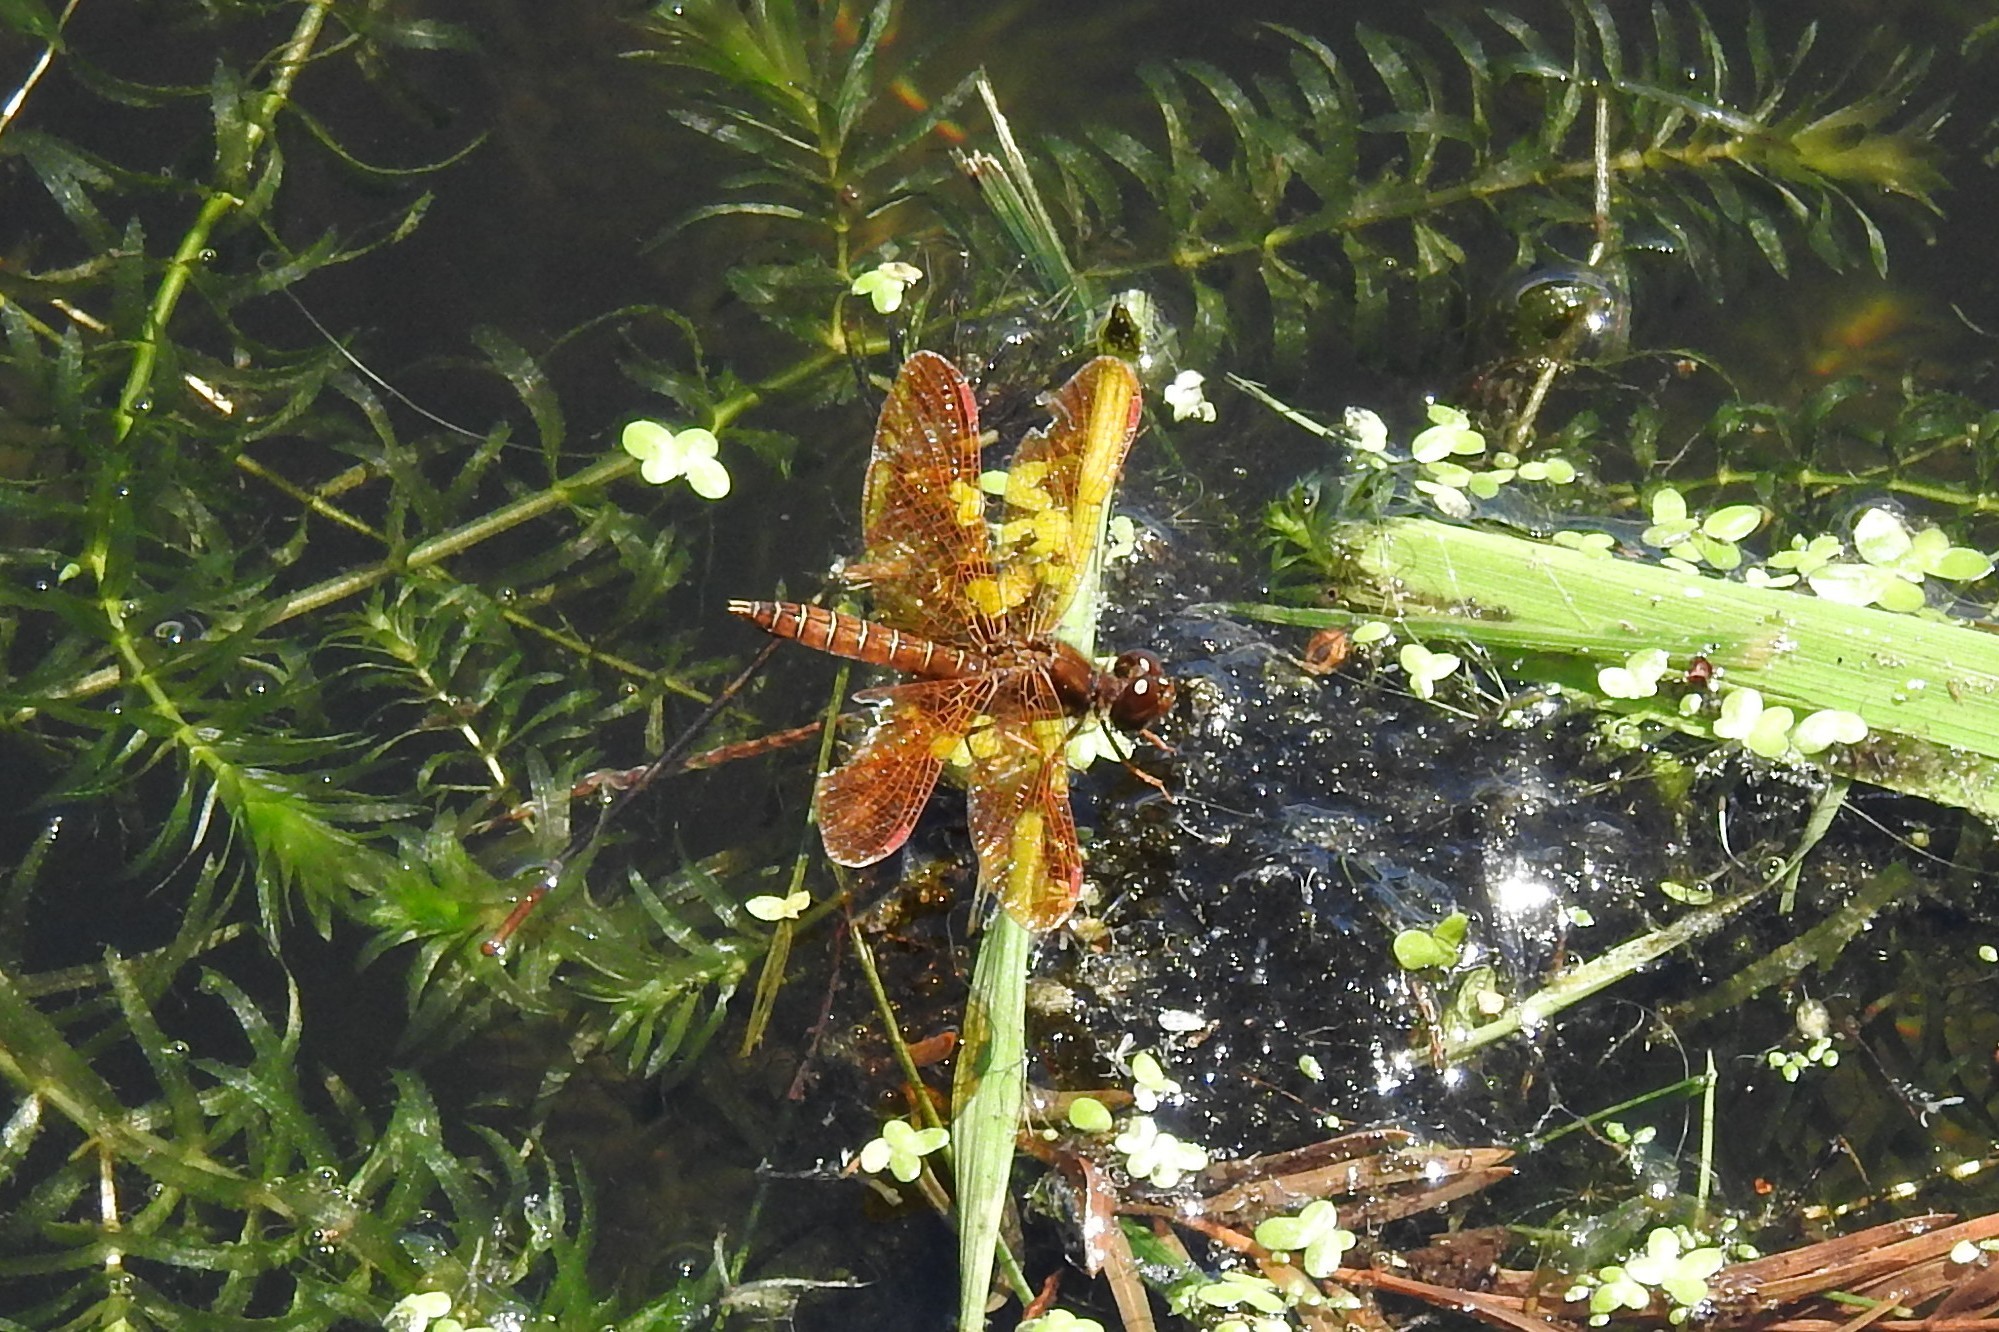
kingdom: Animalia
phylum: Arthropoda
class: Insecta
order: Odonata
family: Libellulidae
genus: Perithemis
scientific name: Perithemis tenera
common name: Eastern amberwing
